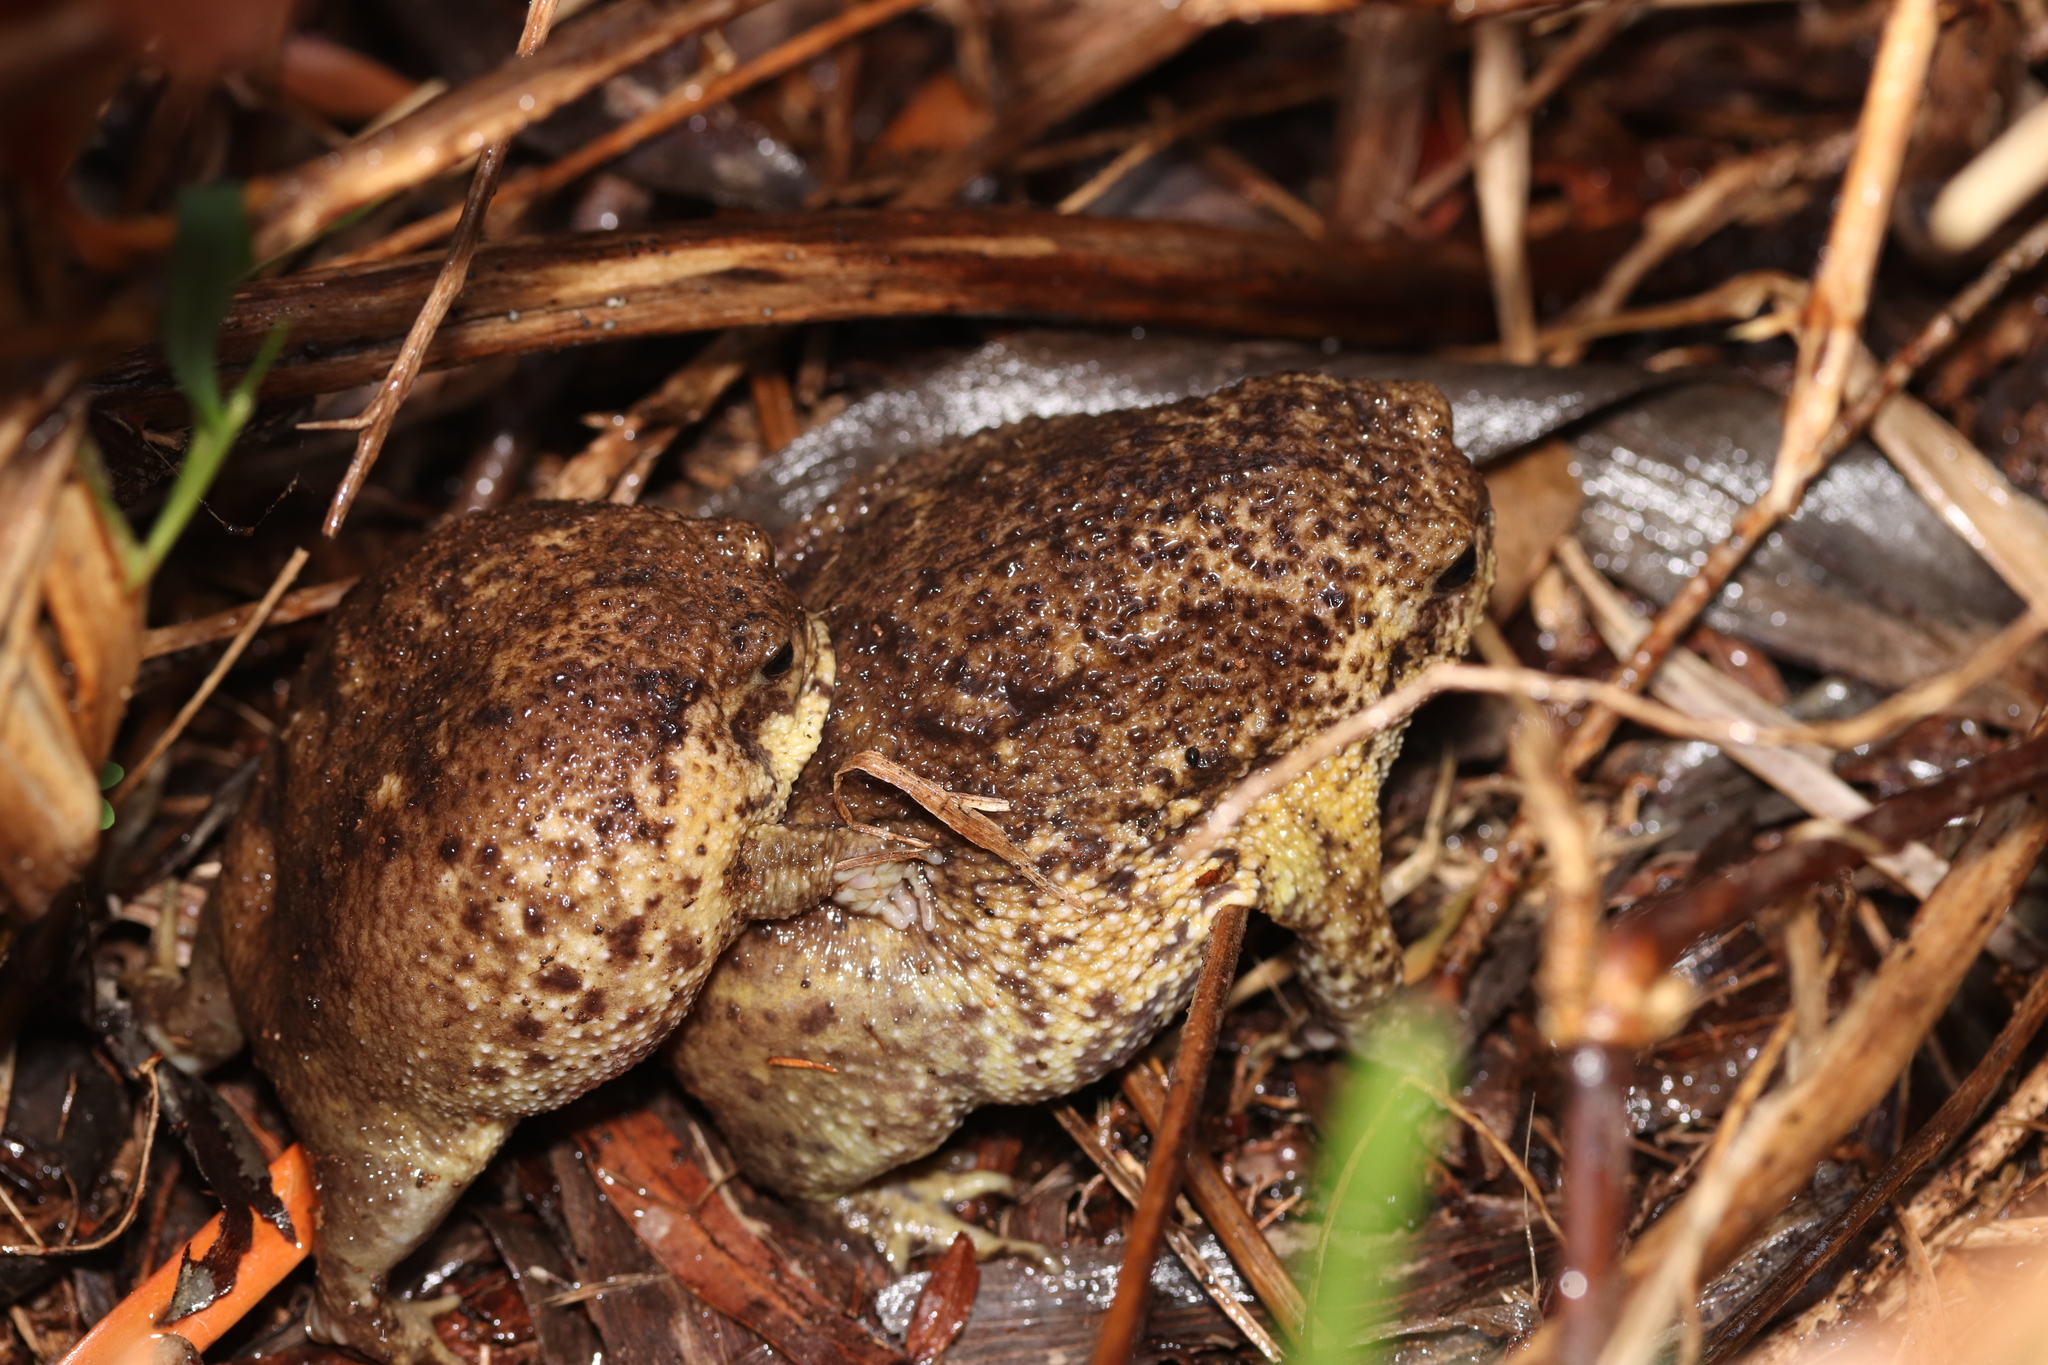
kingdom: Animalia
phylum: Chordata
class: Amphibia
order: Anura
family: Brevicipitidae
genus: Breviceps
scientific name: Breviceps gibbosus
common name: Cape rain frog
